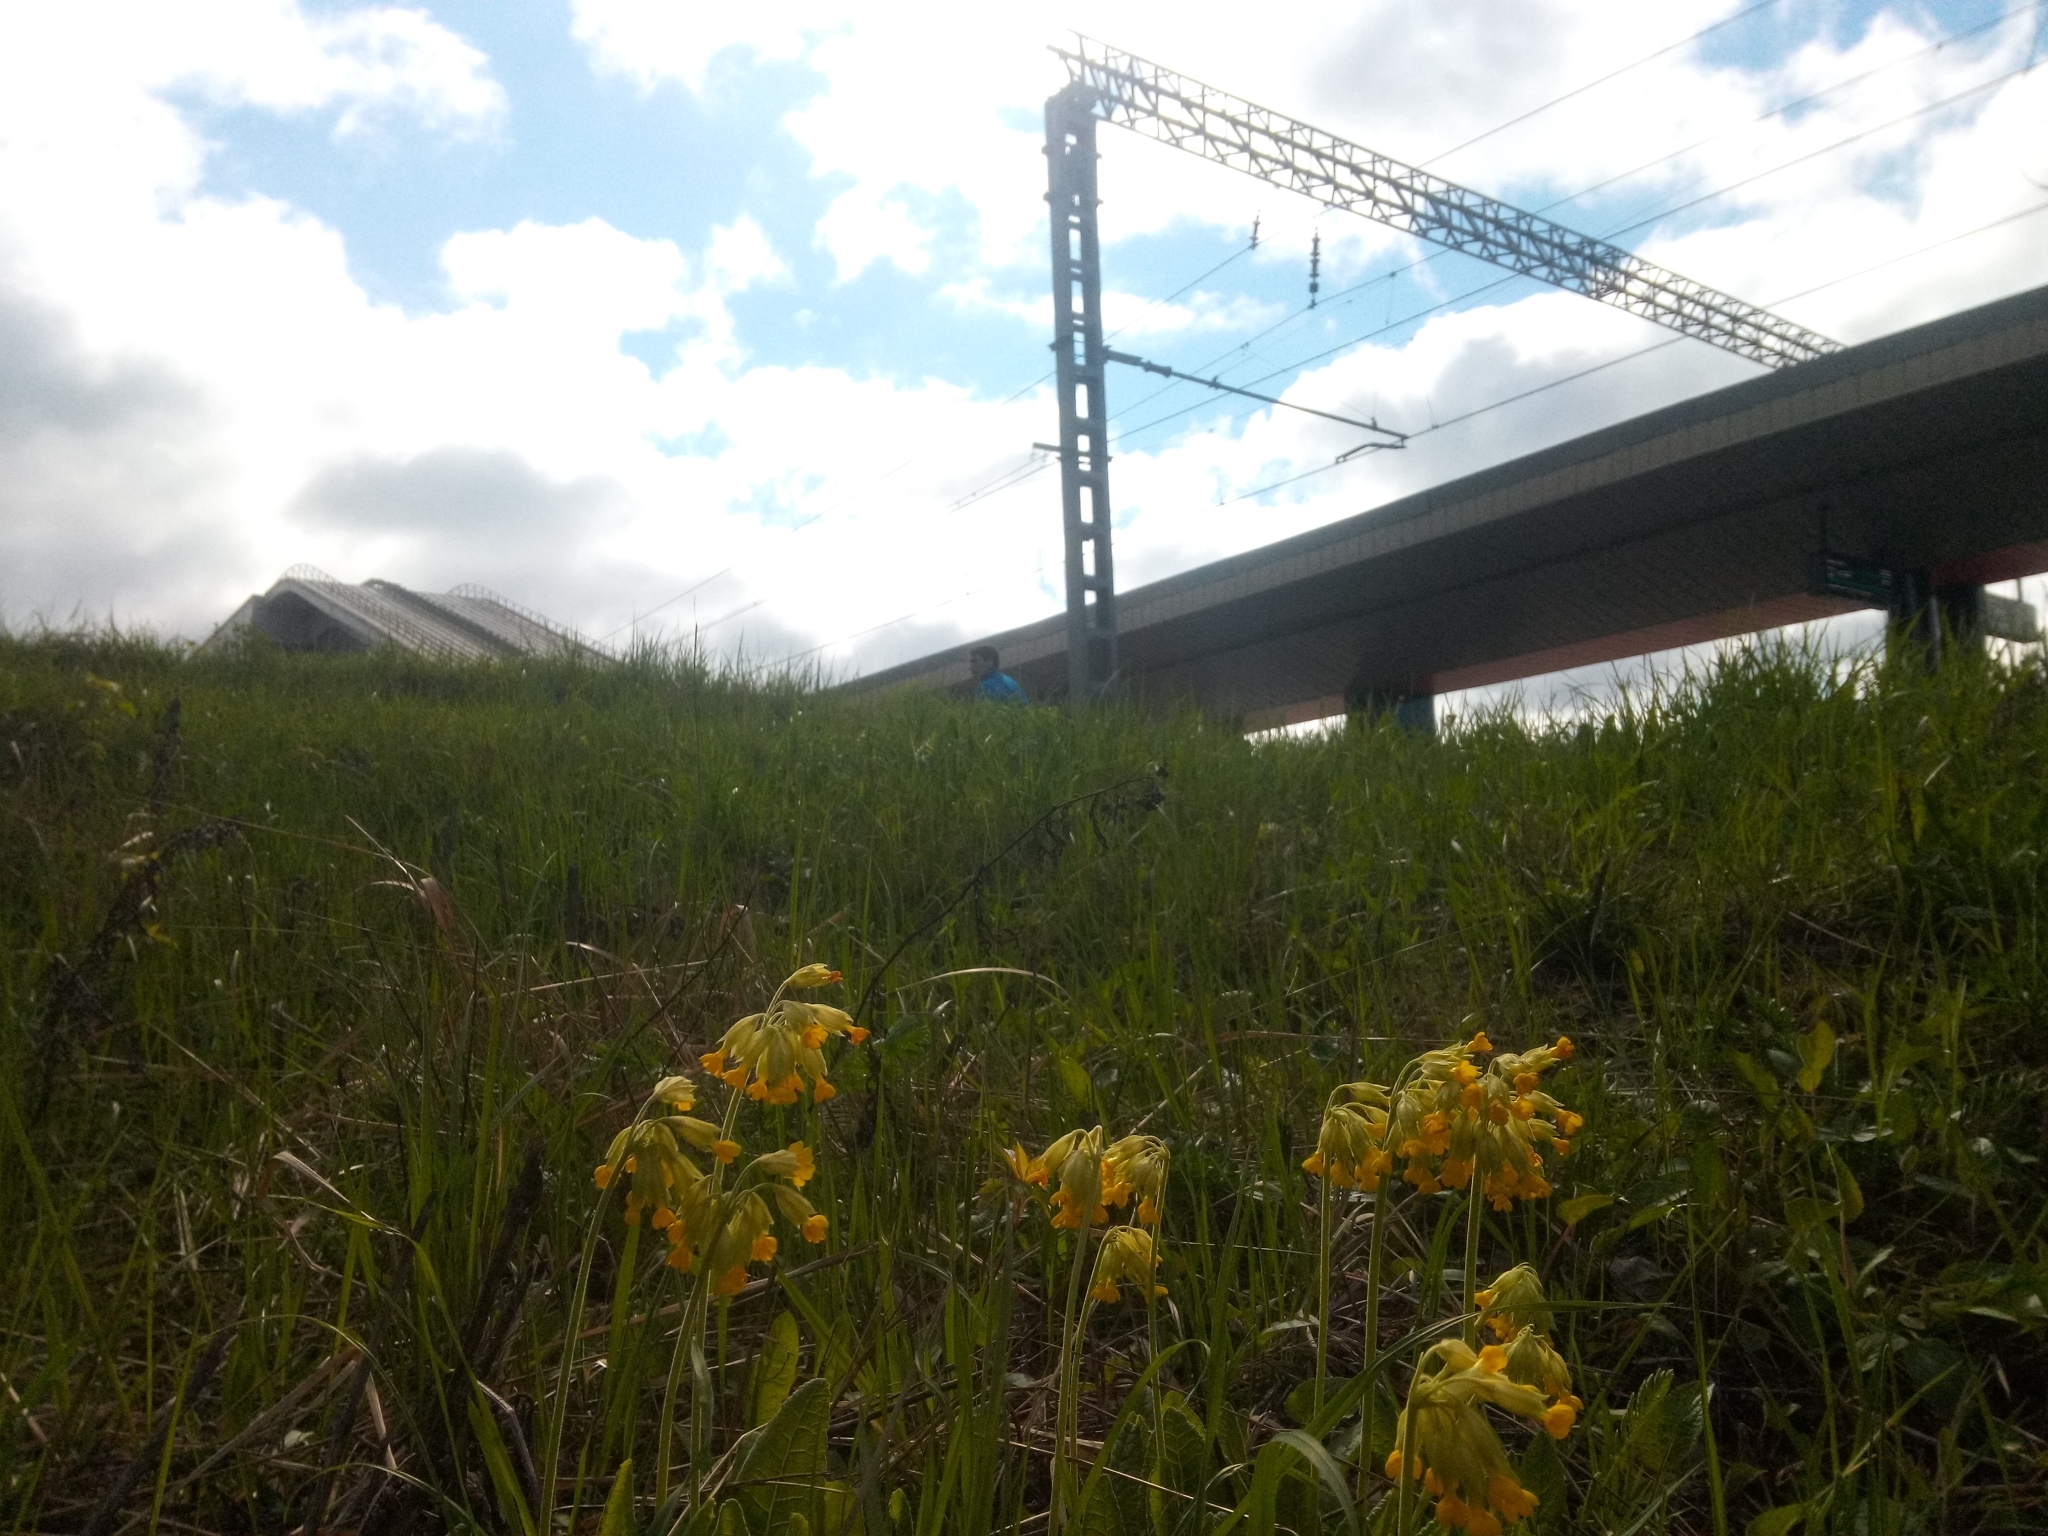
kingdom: Plantae
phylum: Tracheophyta
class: Magnoliopsida
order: Ericales
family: Primulaceae
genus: Primula
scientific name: Primula veris
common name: Cowslip
